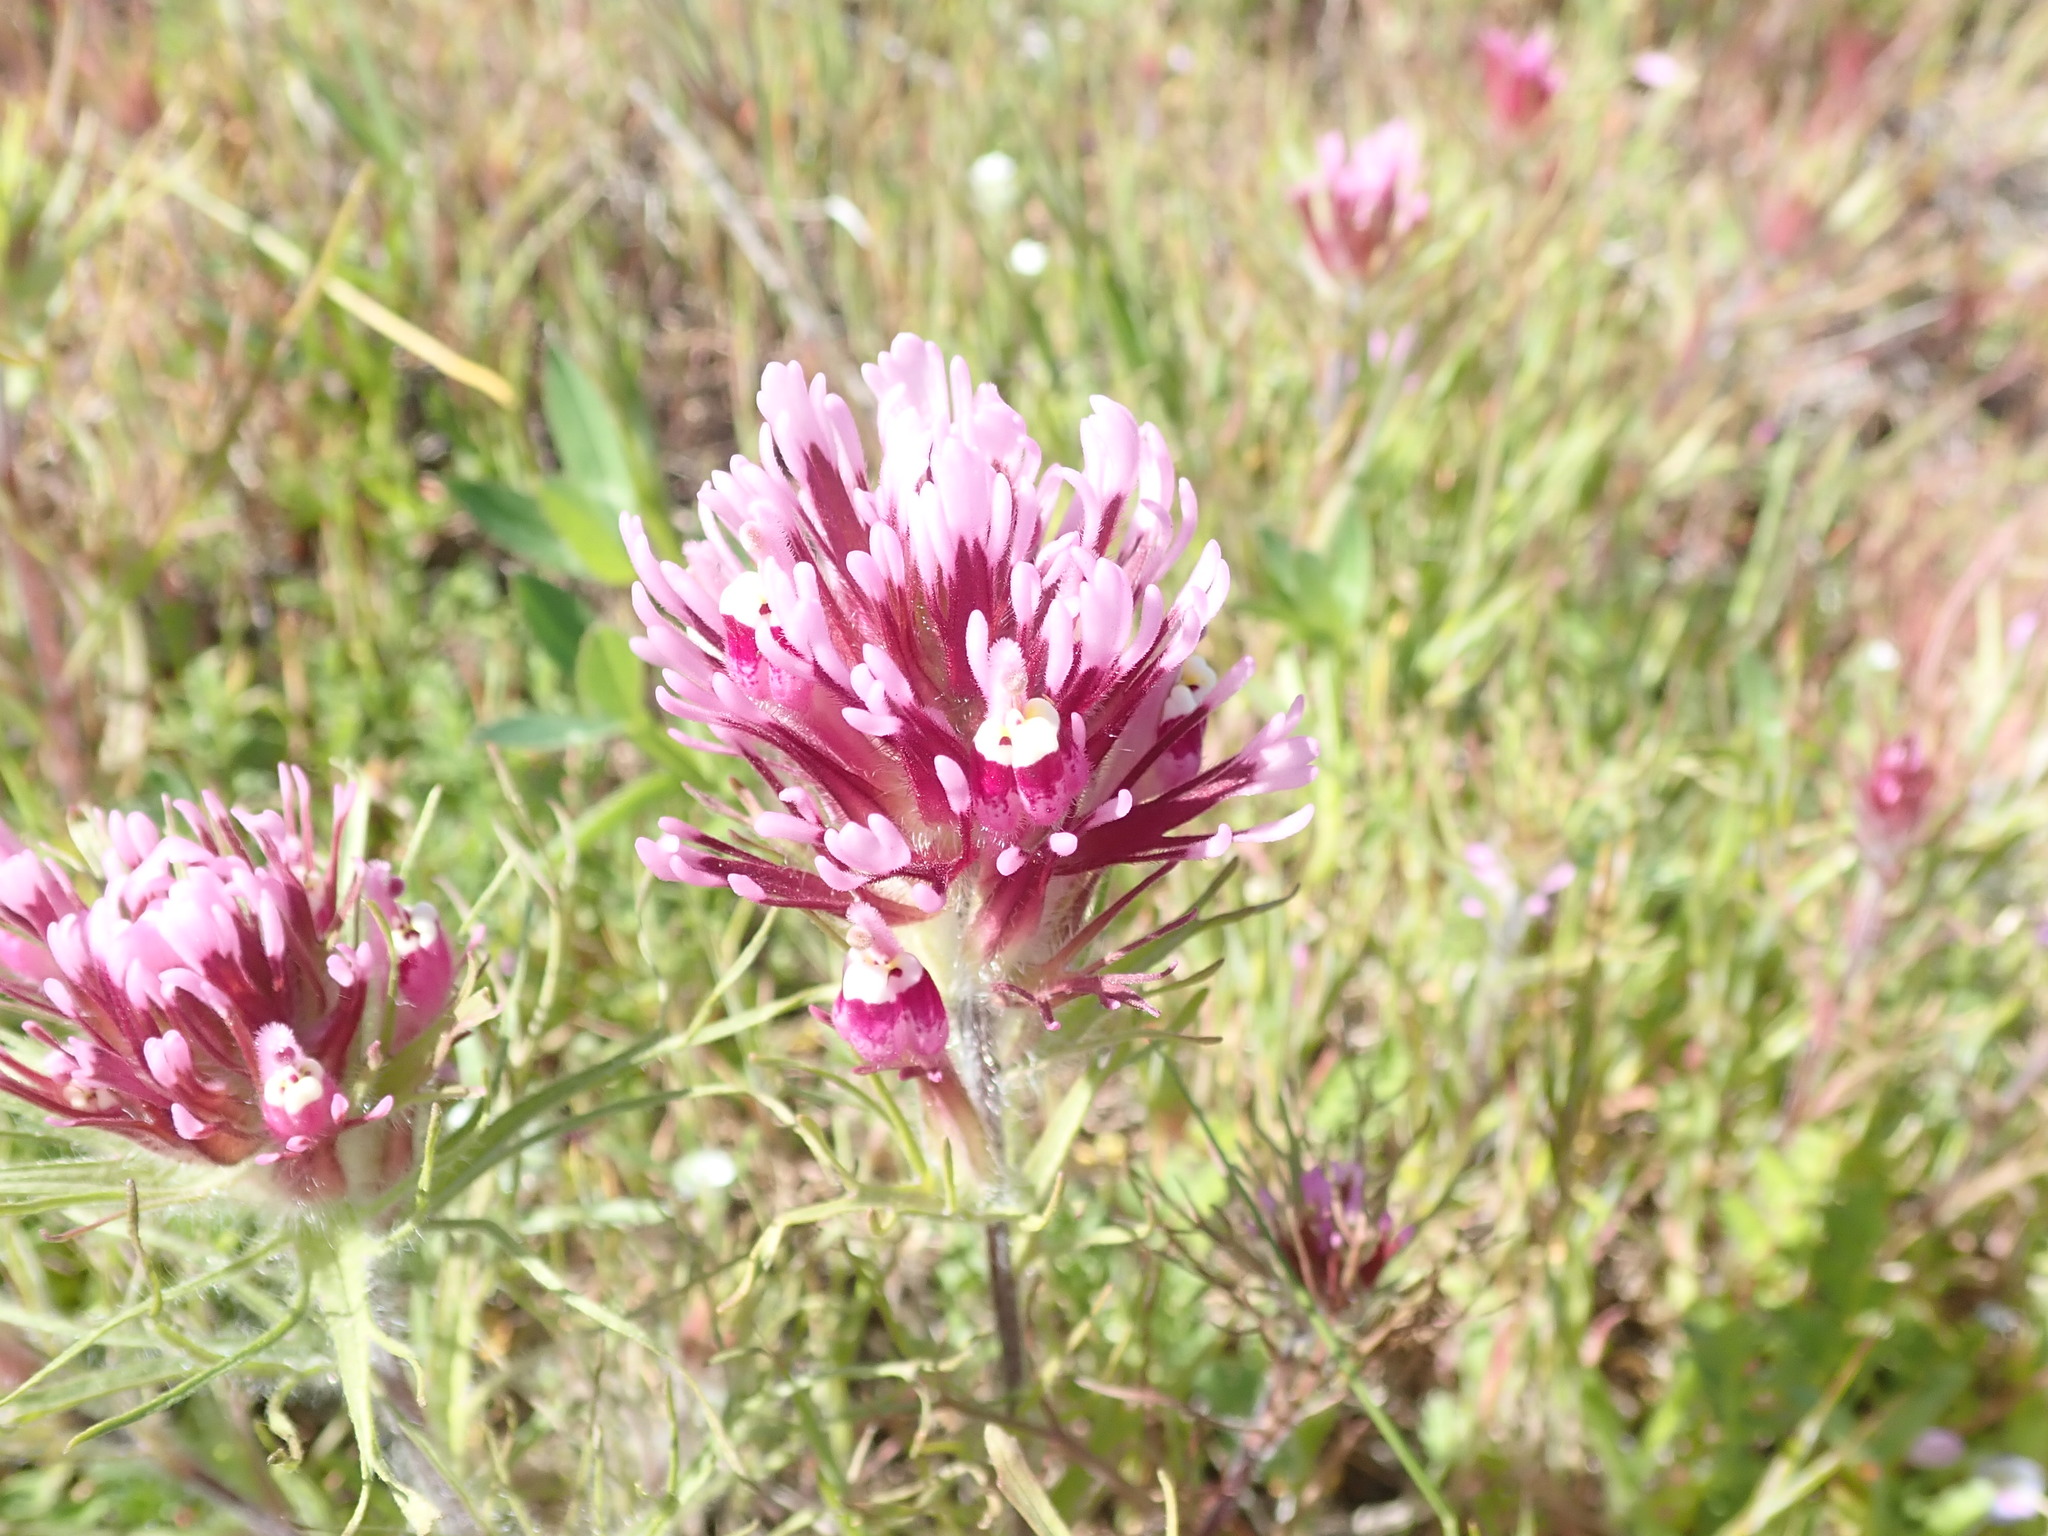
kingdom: Plantae
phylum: Tracheophyta
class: Magnoliopsida
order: Lamiales
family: Orobanchaceae
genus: Castilleja
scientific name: Castilleja exserta
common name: Purple owl-clover
